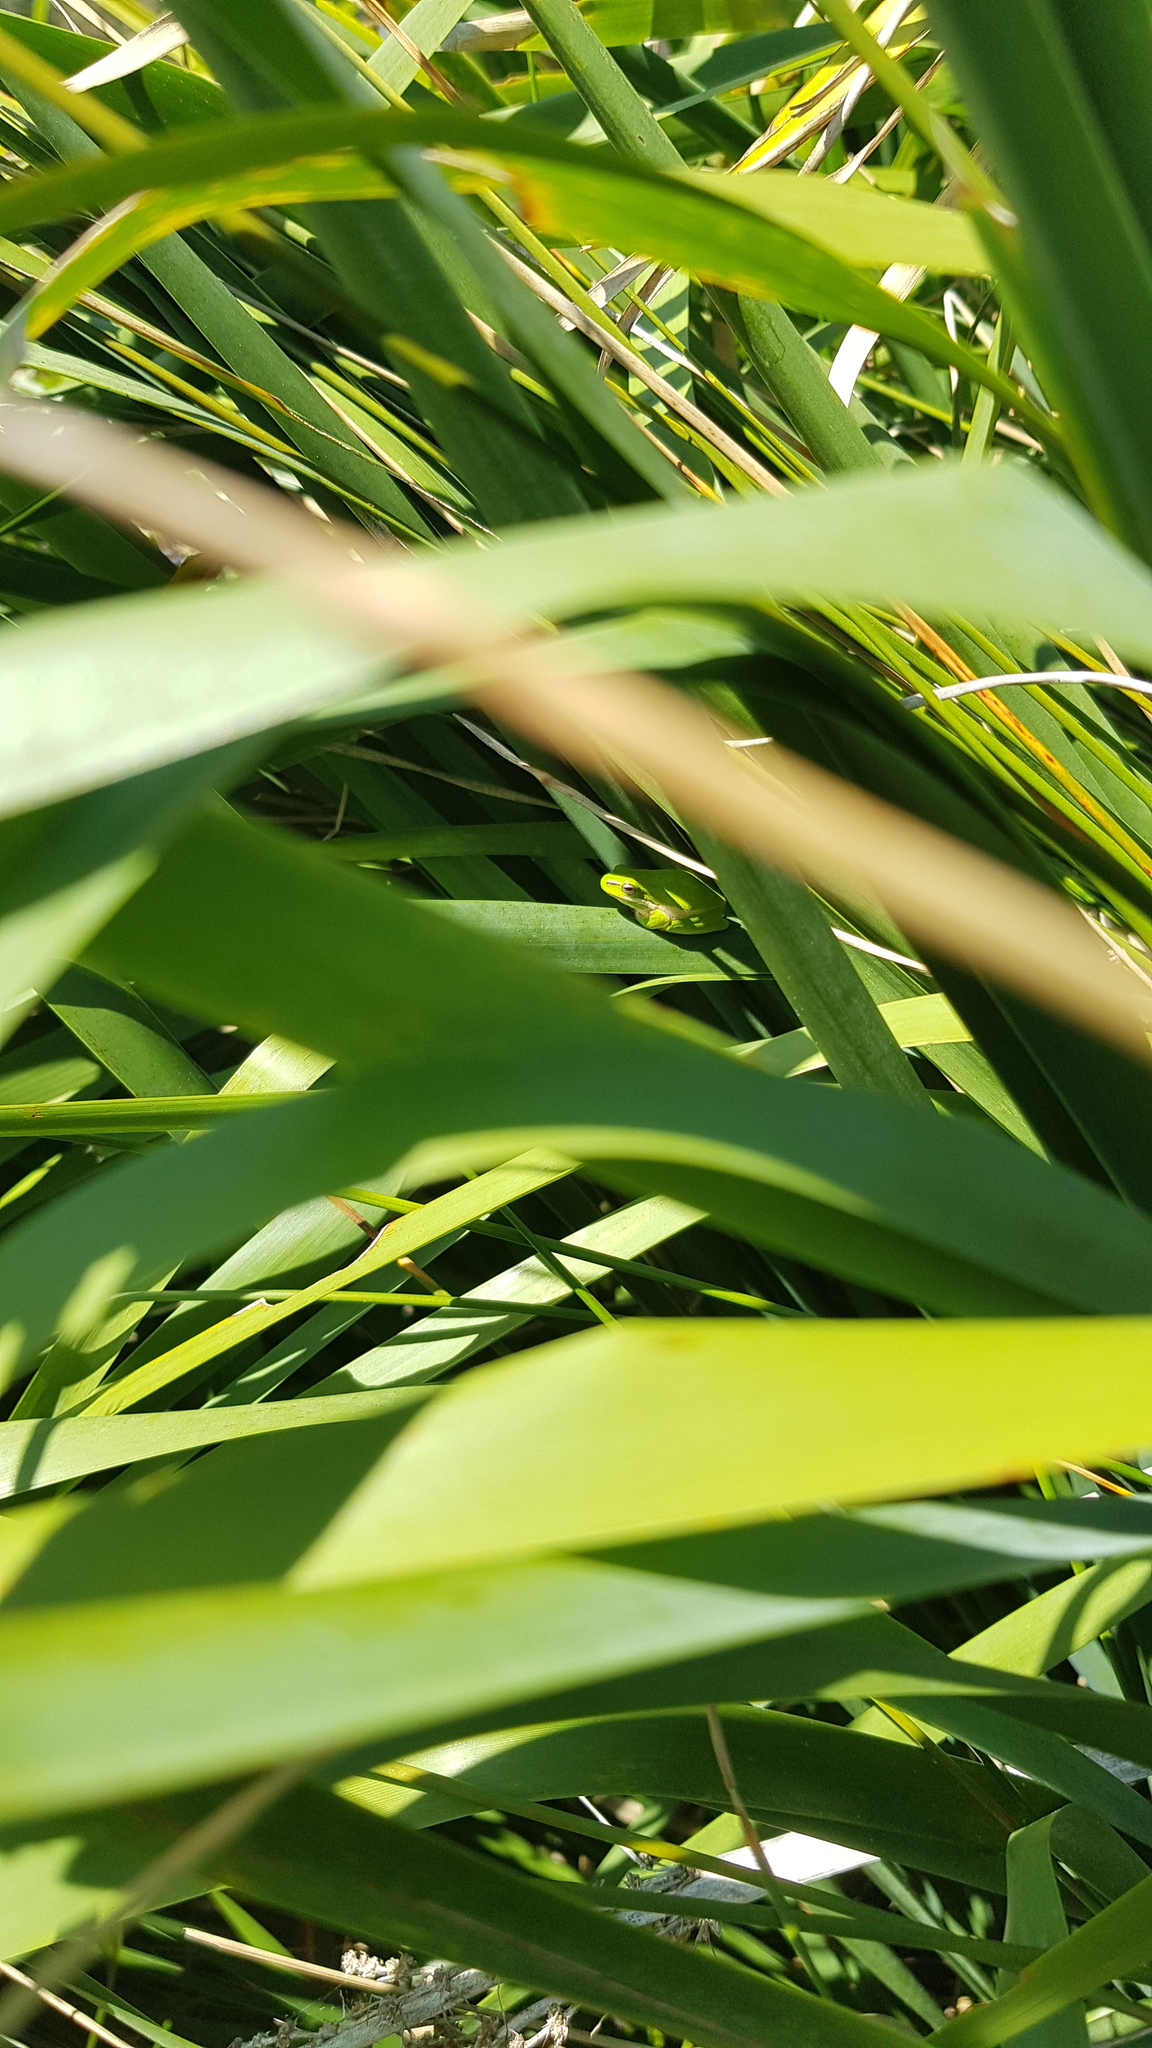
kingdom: Animalia
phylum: Chordata
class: Amphibia
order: Anura
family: Pelodryadidae
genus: Litoria
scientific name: Litoria fallax
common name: Eastern dwarf treefrog
